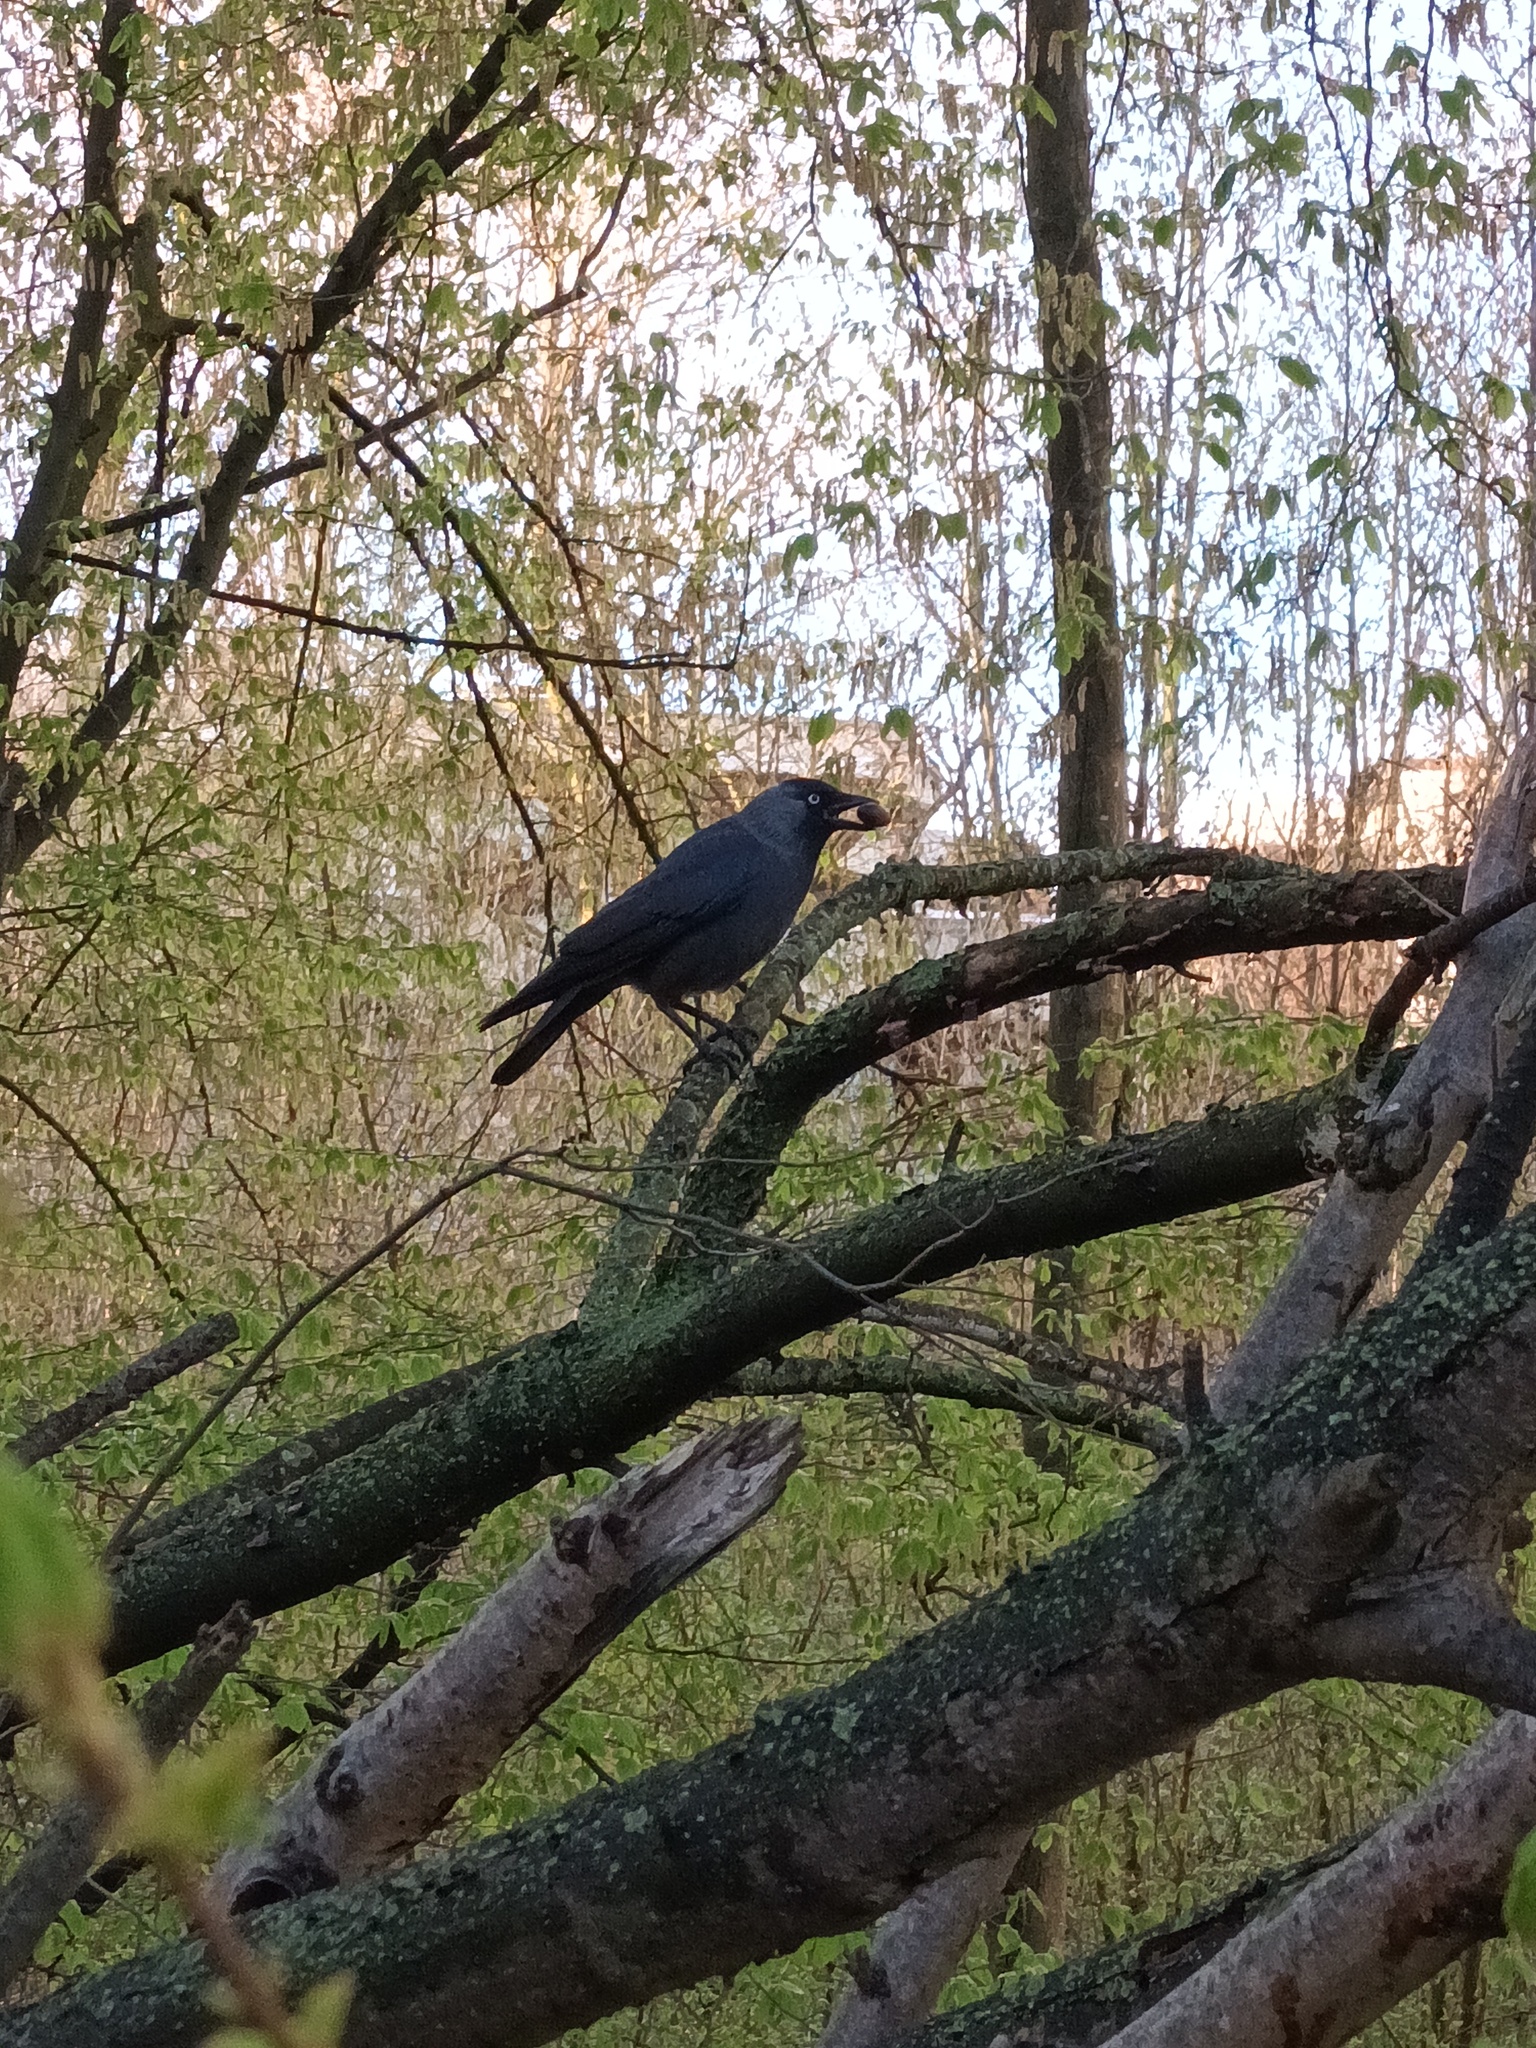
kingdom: Animalia
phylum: Chordata
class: Aves
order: Passeriformes
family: Corvidae
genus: Coloeus
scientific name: Coloeus monedula
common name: Western jackdaw
